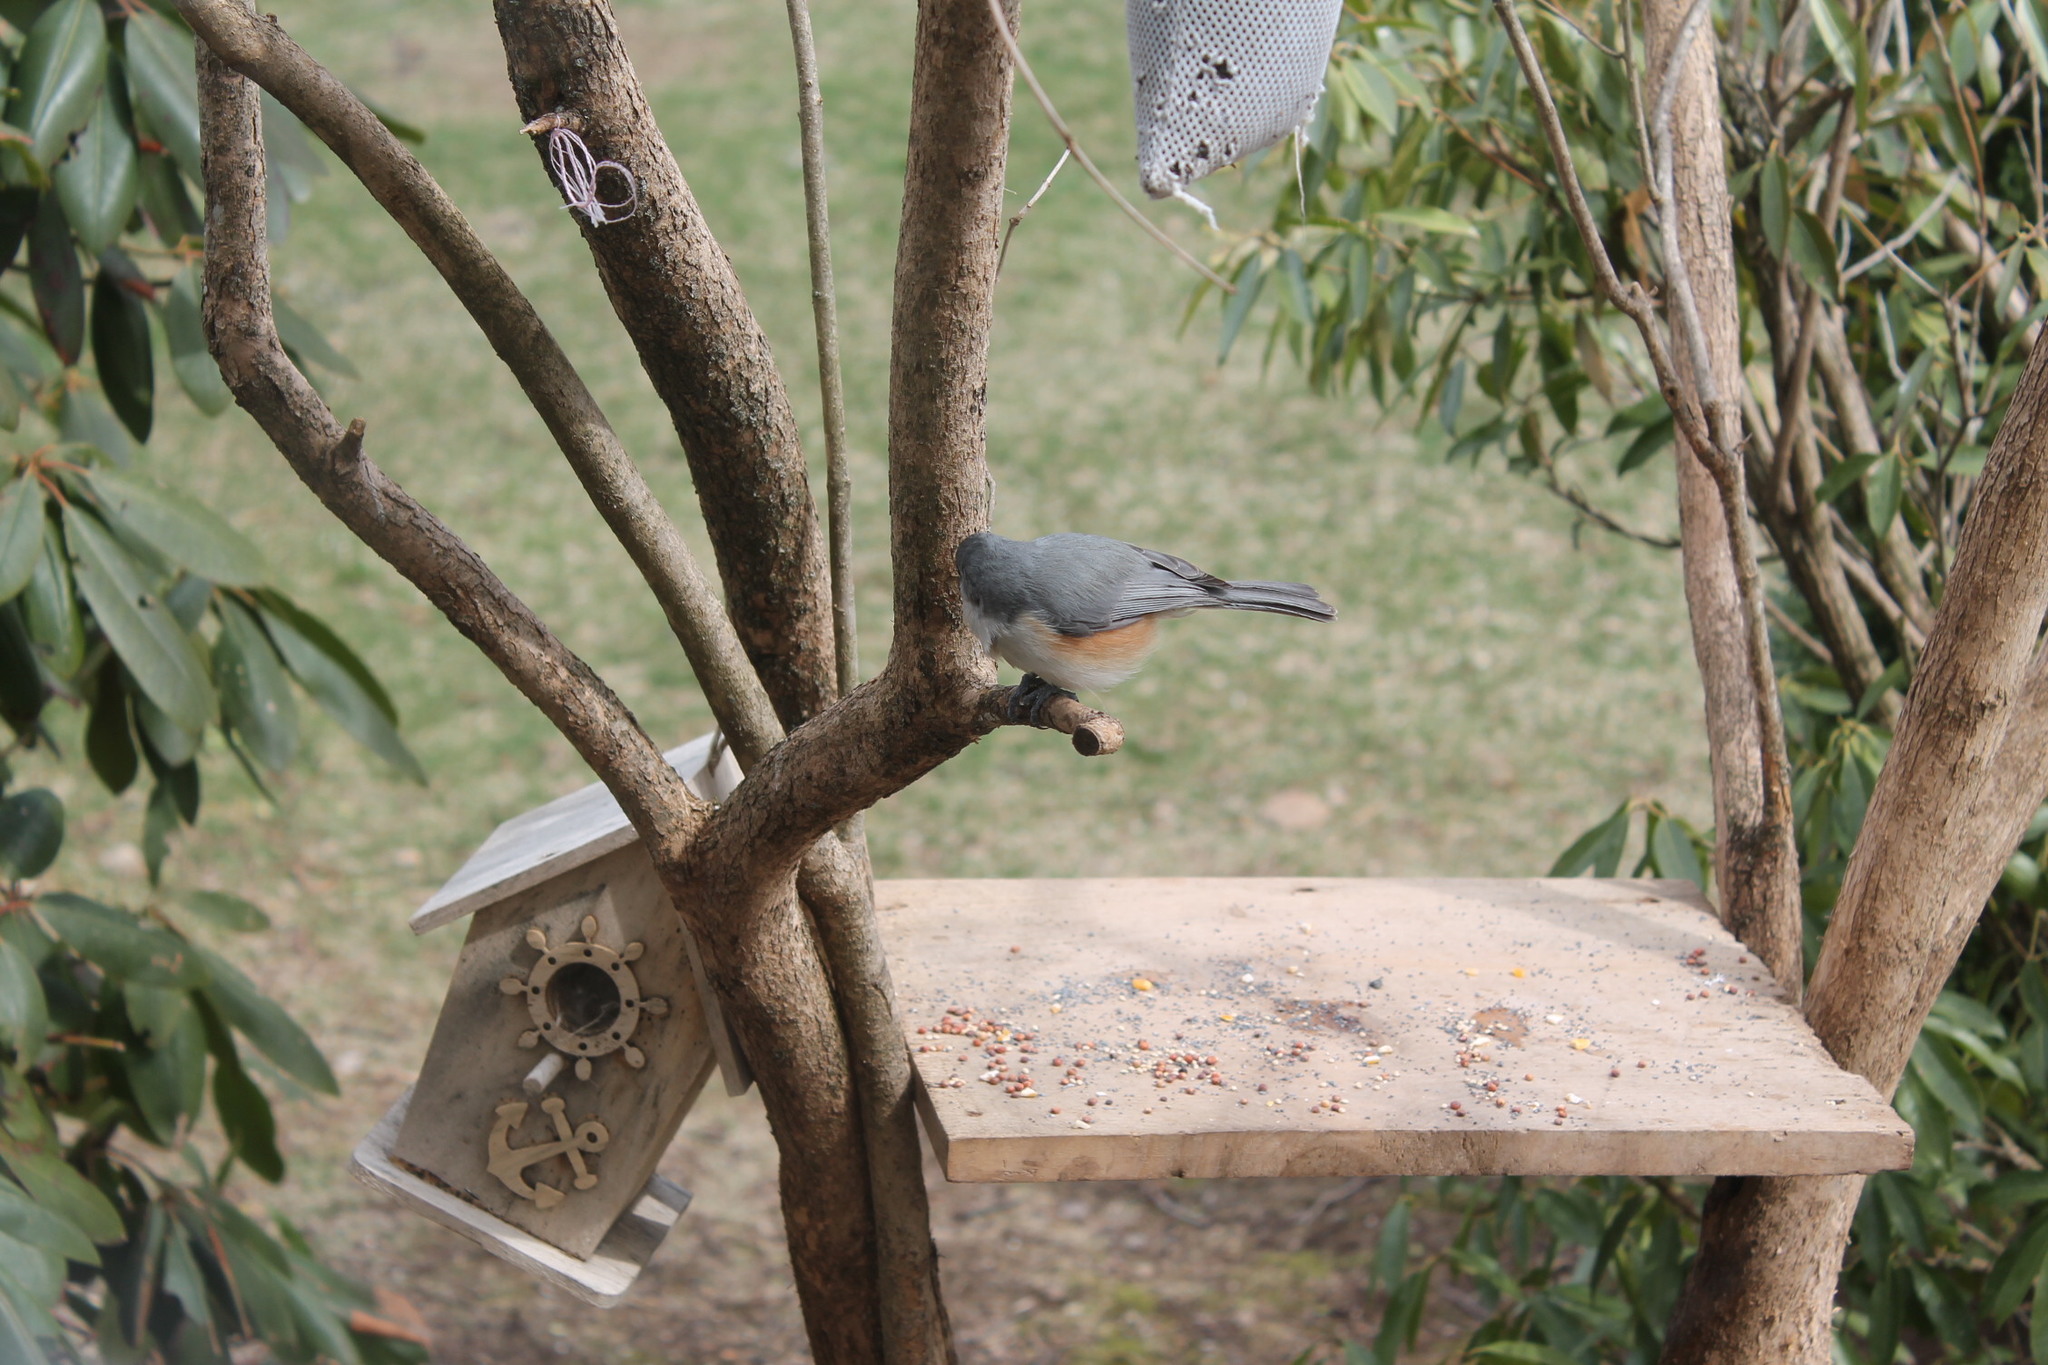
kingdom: Animalia
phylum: Chordata
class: Aves
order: Passeriformes
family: Paridae
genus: Baeolophus
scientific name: Baeolophus bicolor
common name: Tufted titmouse
